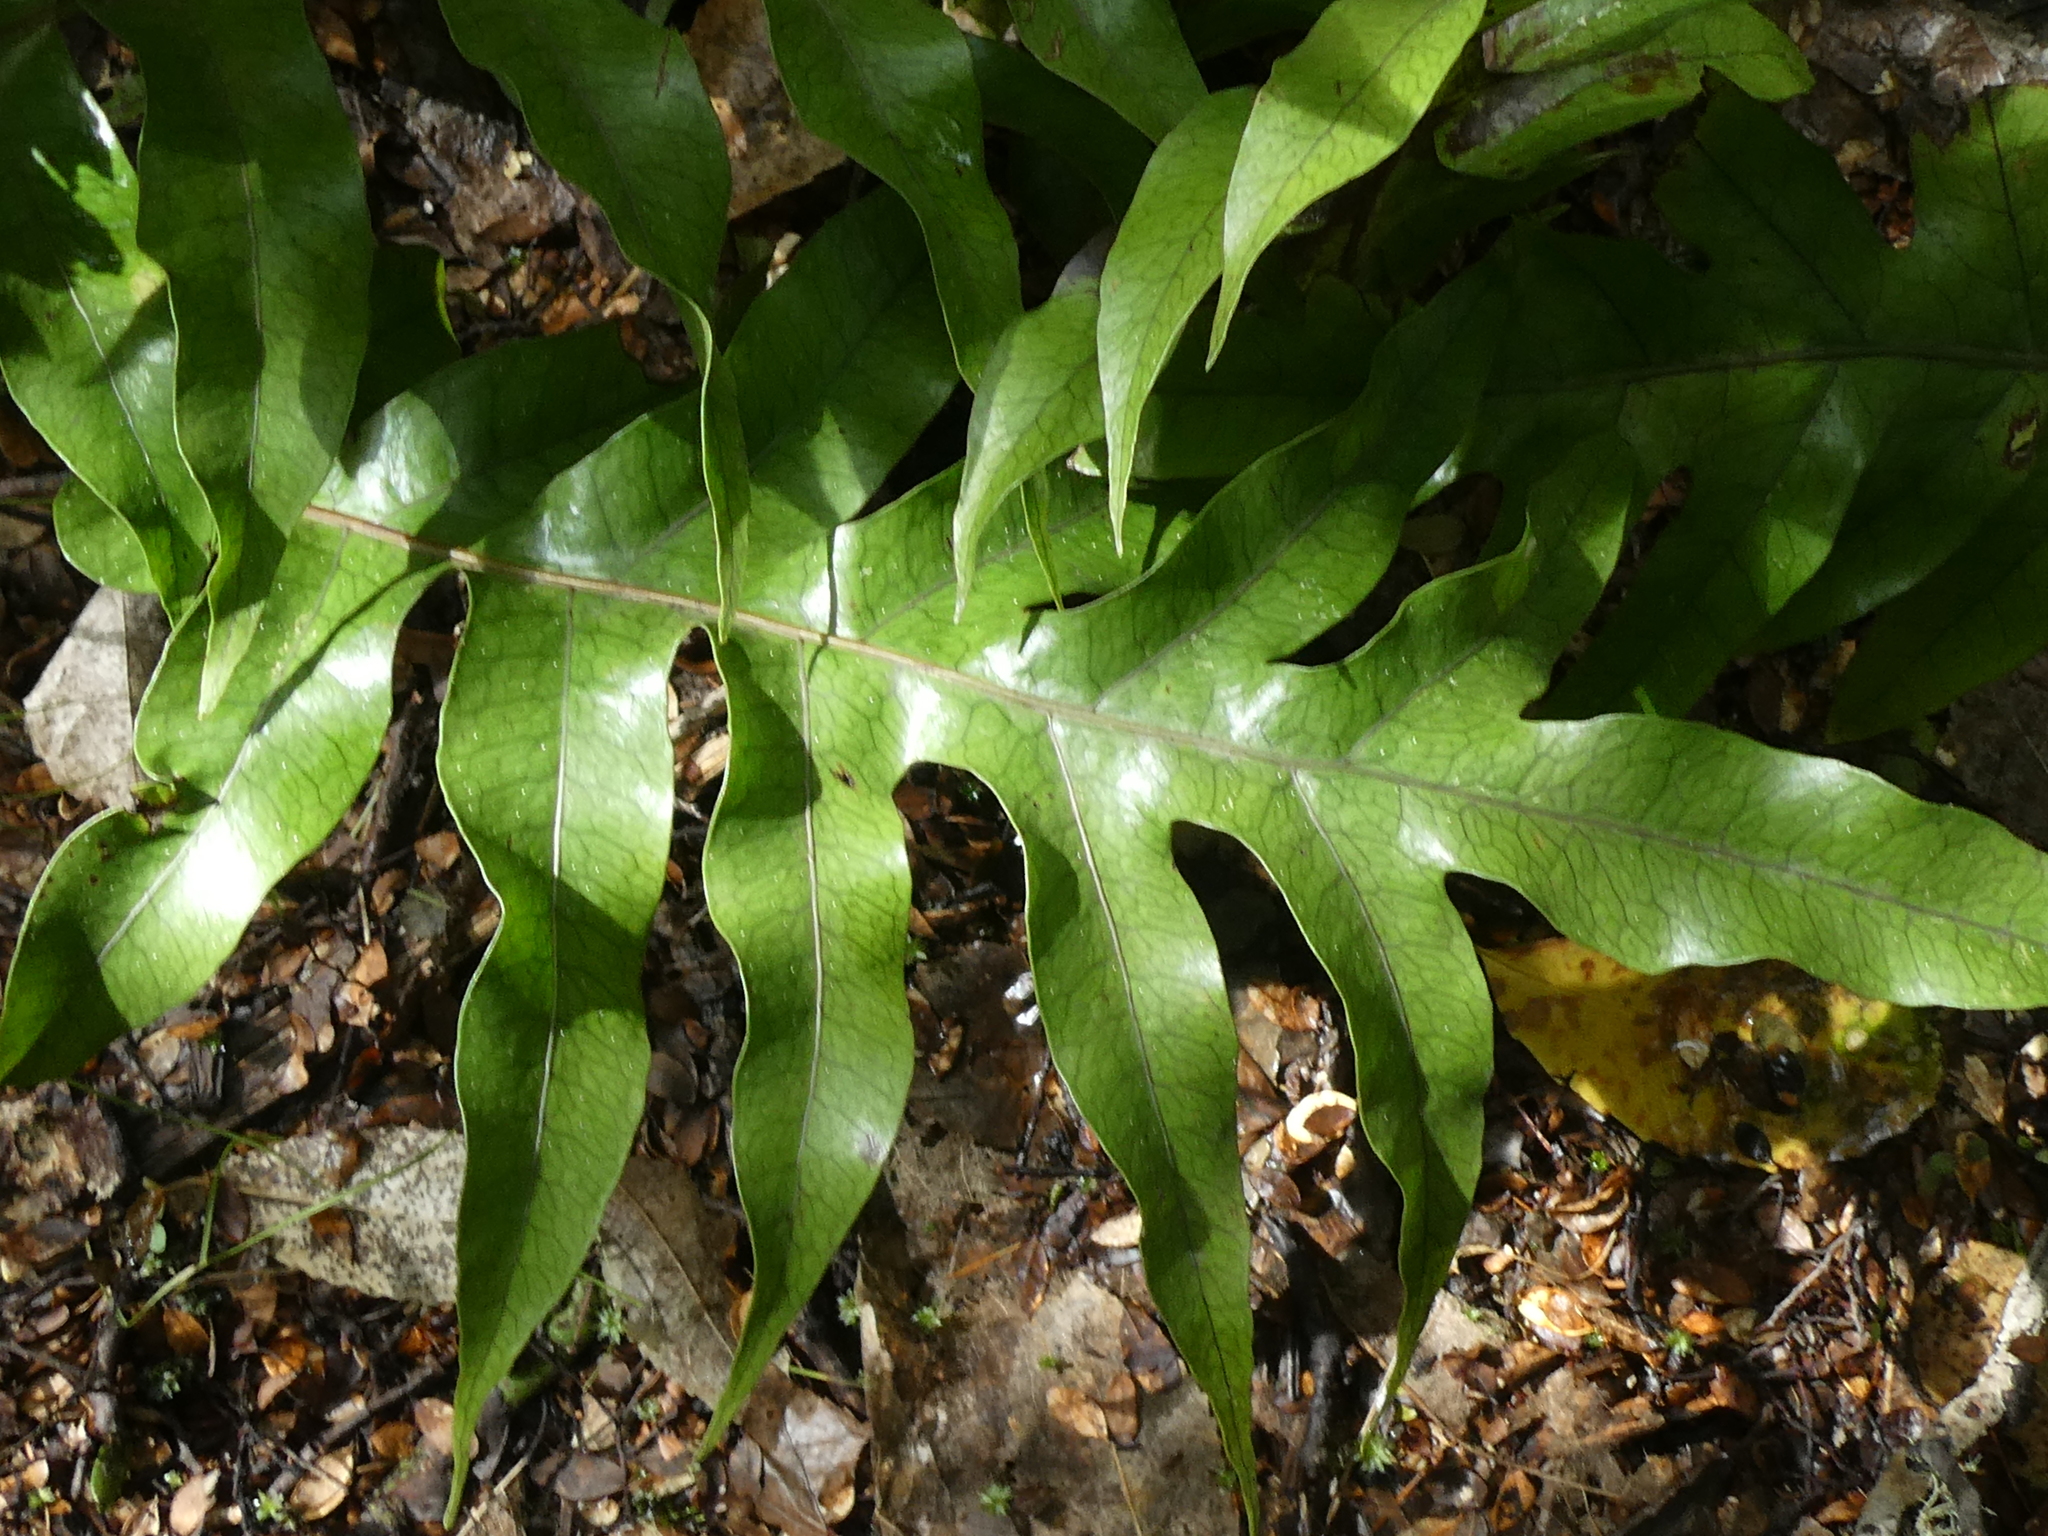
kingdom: Plantae
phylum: Tracheophyta
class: Polypodiopsida
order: Polypodiales
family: Polypodiaceae
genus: Lecanopteris
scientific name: Lecanopteris pustulata
